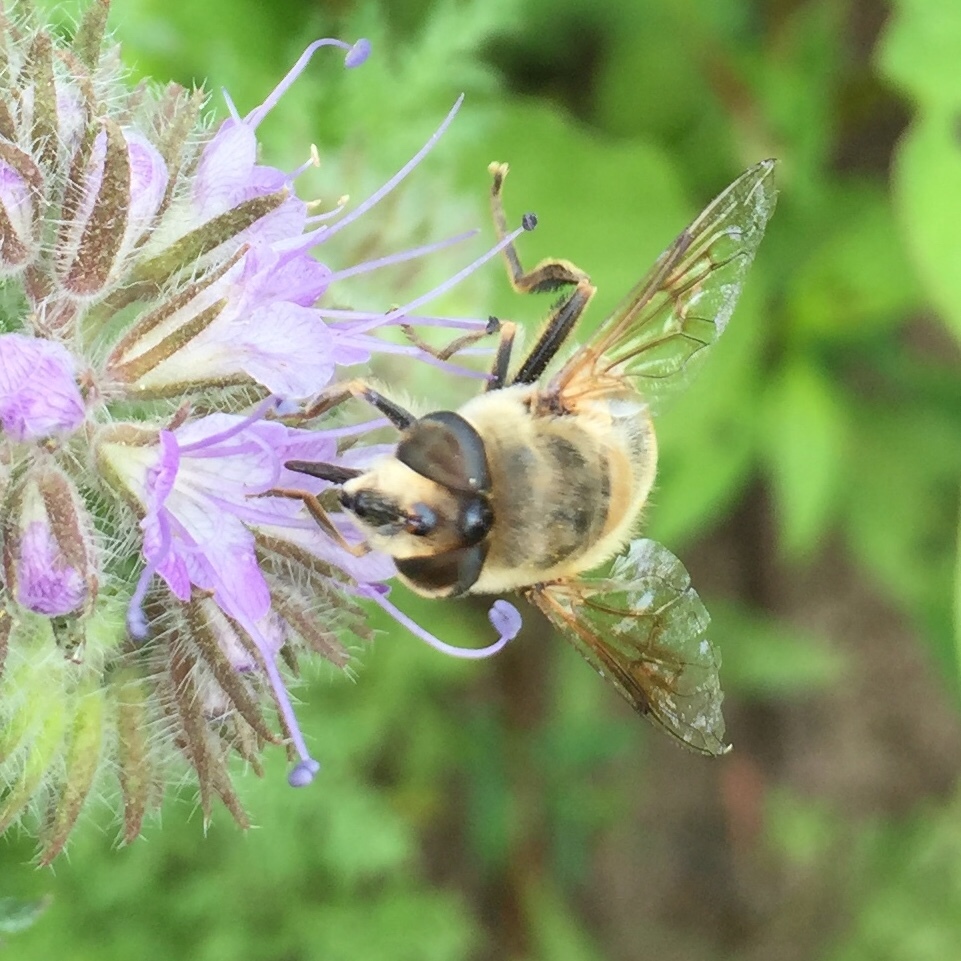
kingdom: Animalia
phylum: Arthropoda
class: Insecta
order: Diptera
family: Syrphidae
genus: Eristalis
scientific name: Eristalis tenax
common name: Drone fly
